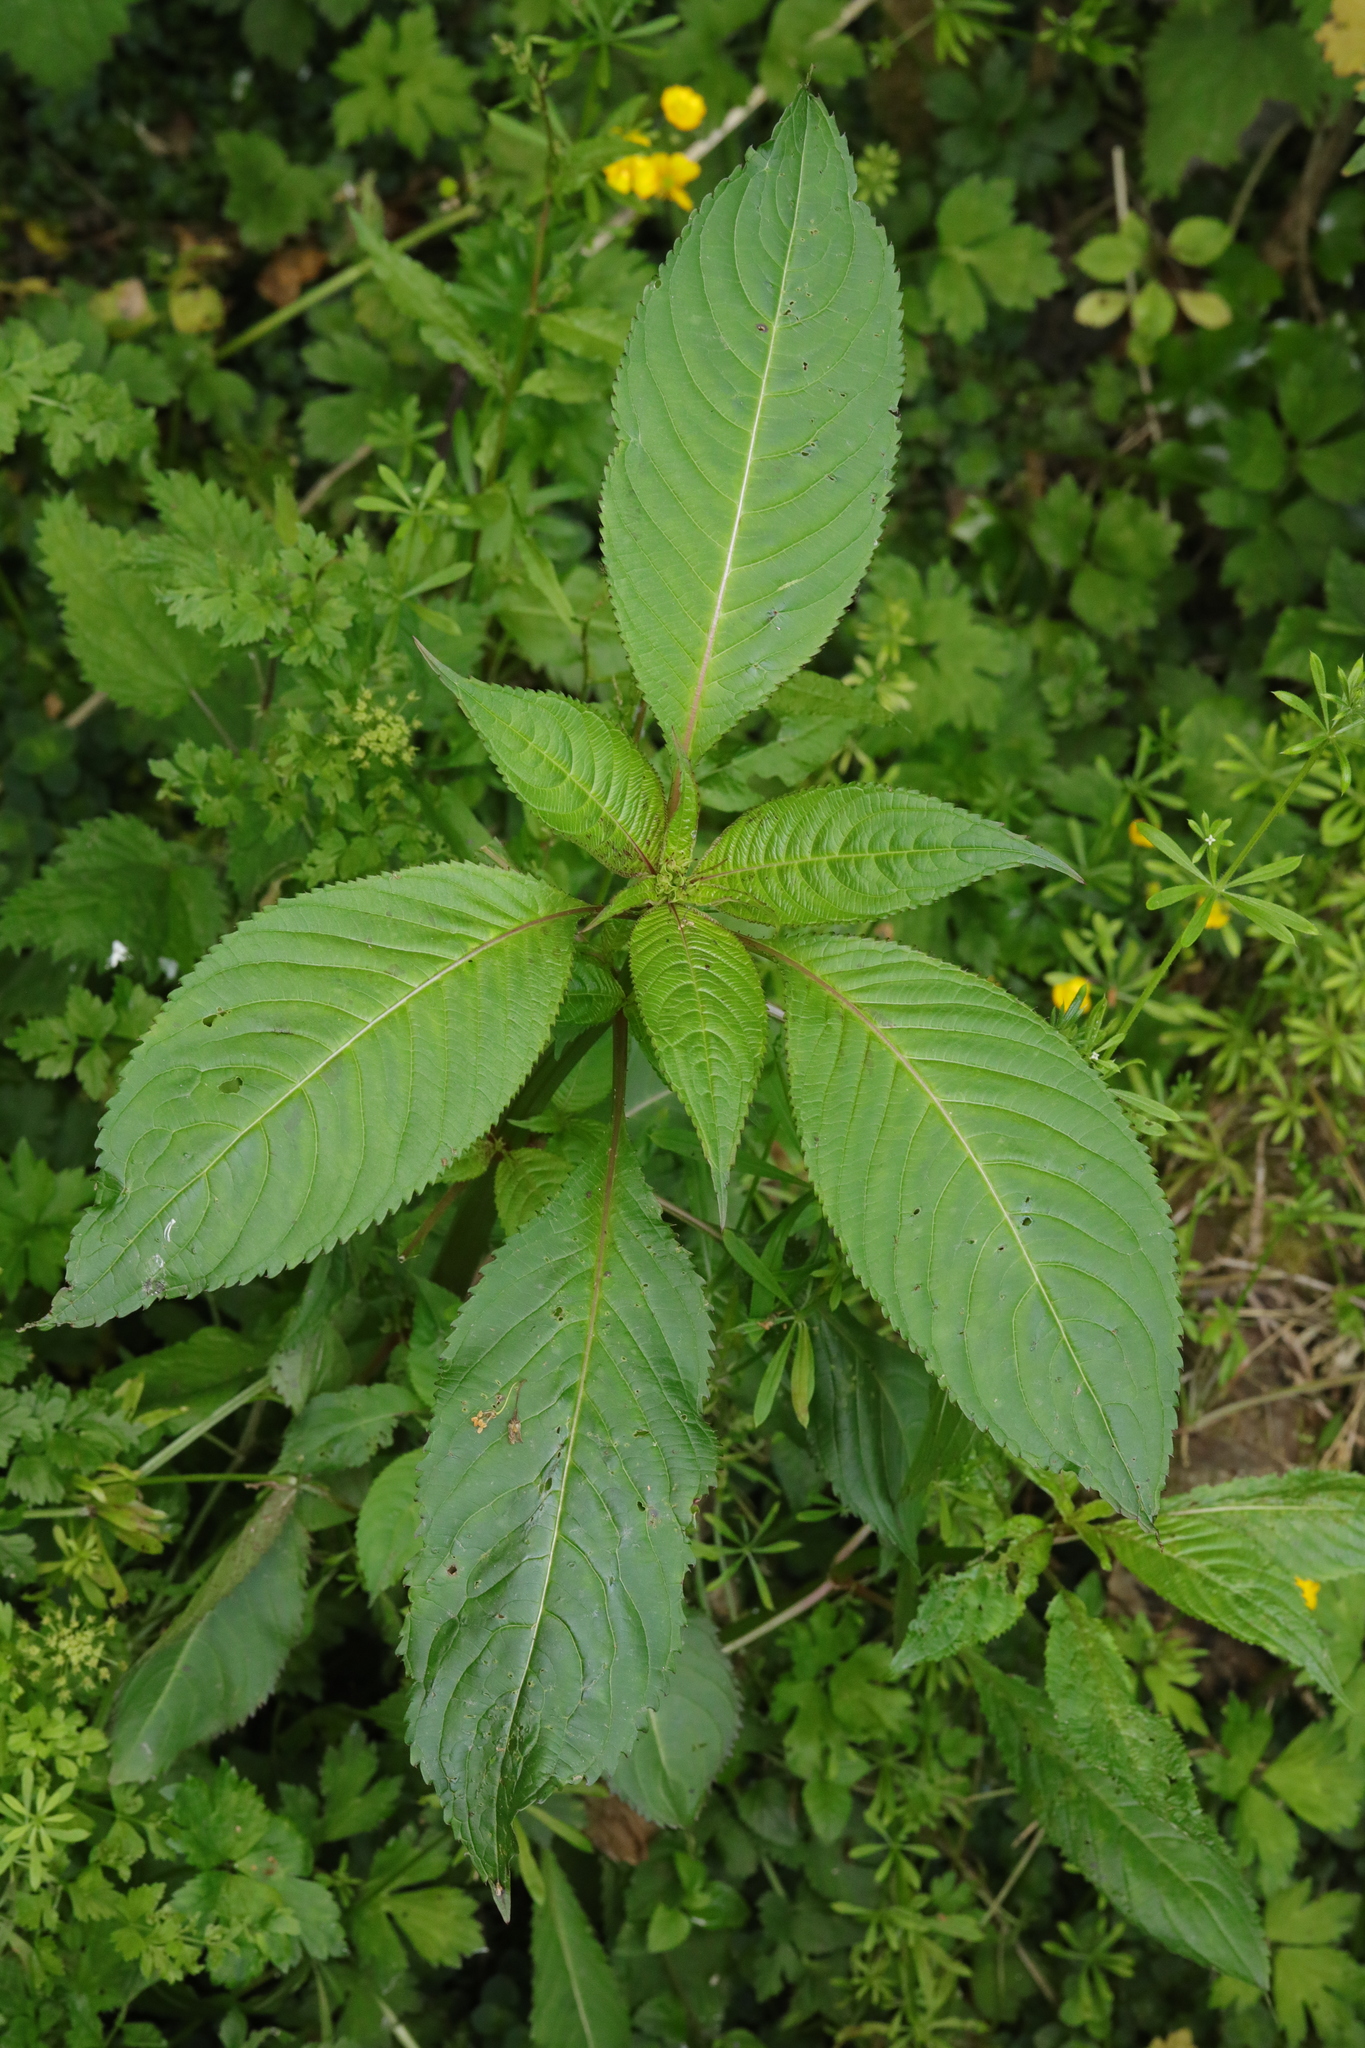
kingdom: Plantae
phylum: Tracheophyta
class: Magnoliopsida
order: Ericales
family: Balsaminaceae
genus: Impatiens
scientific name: Impatiens glandulifera
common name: Himalayan balsam
